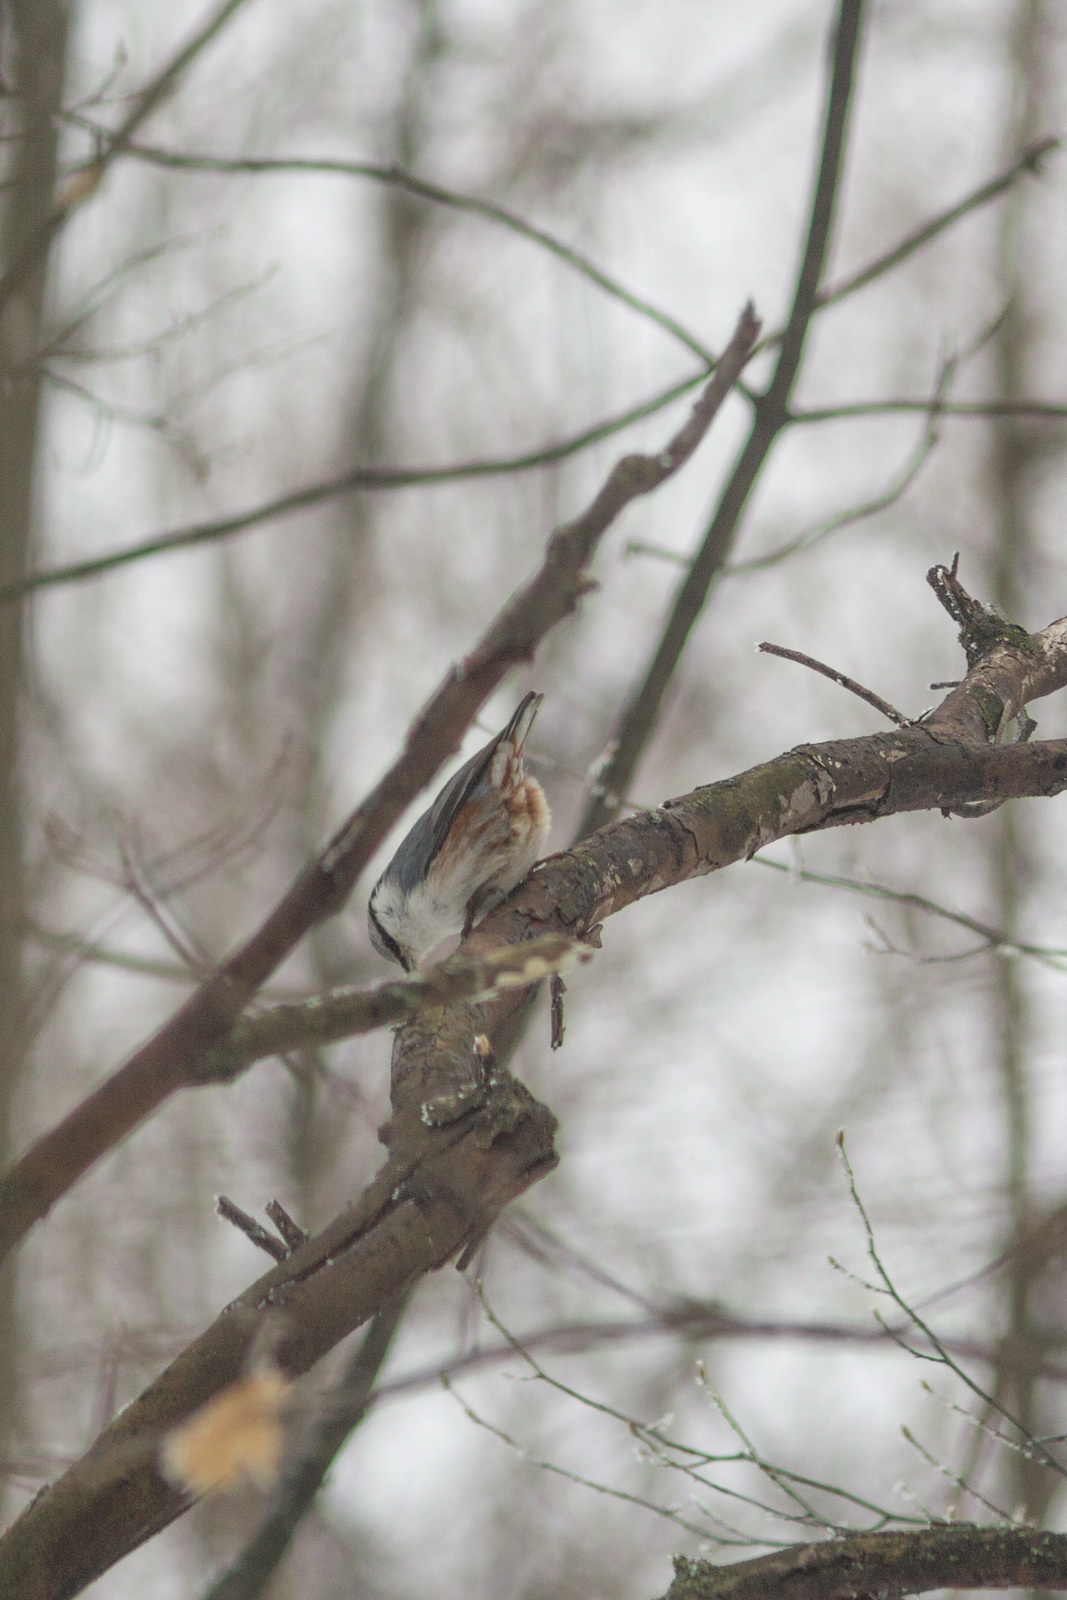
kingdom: Animalia
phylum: Chordata
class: Aves
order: Passeriformes
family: Sittidae
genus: Sitta
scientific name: Sitta europaea
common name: Eurasian nuthatch
